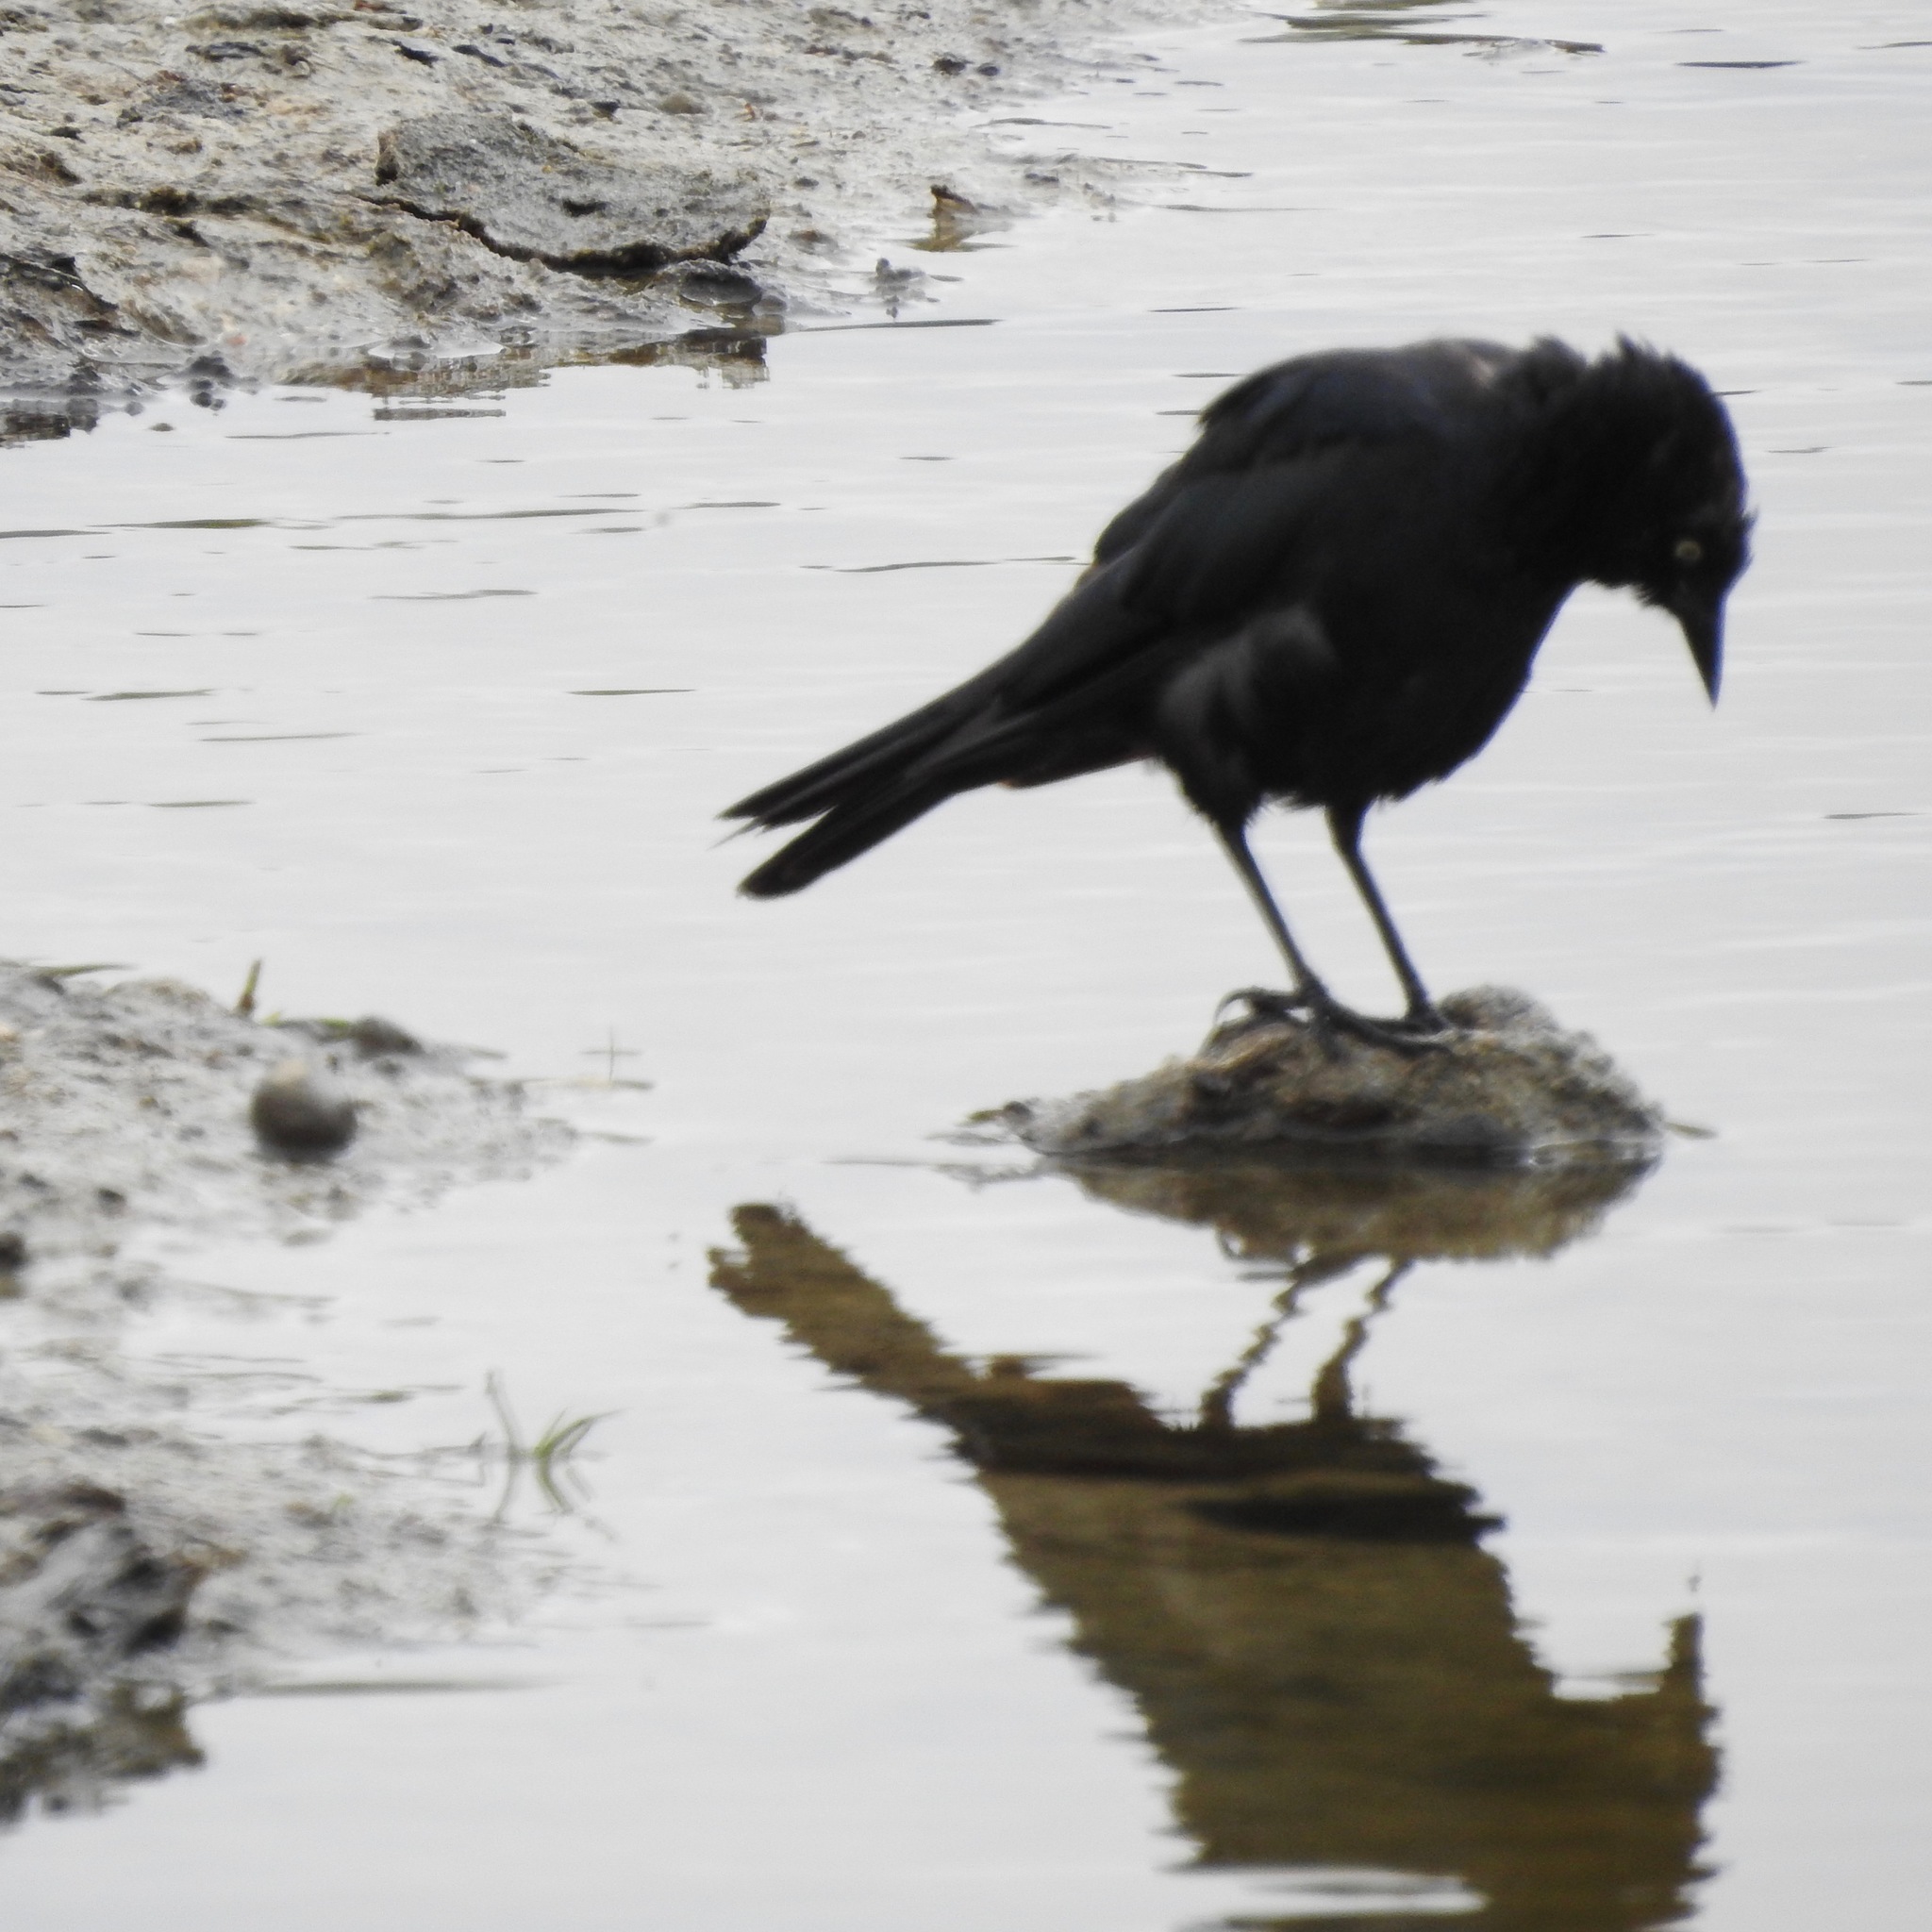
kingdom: Animalia
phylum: Chordata
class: Aves
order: Passeriformes
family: Icteridae
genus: Euphagus
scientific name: Euphagus cyanocephalus
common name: Brewer's blackbird
